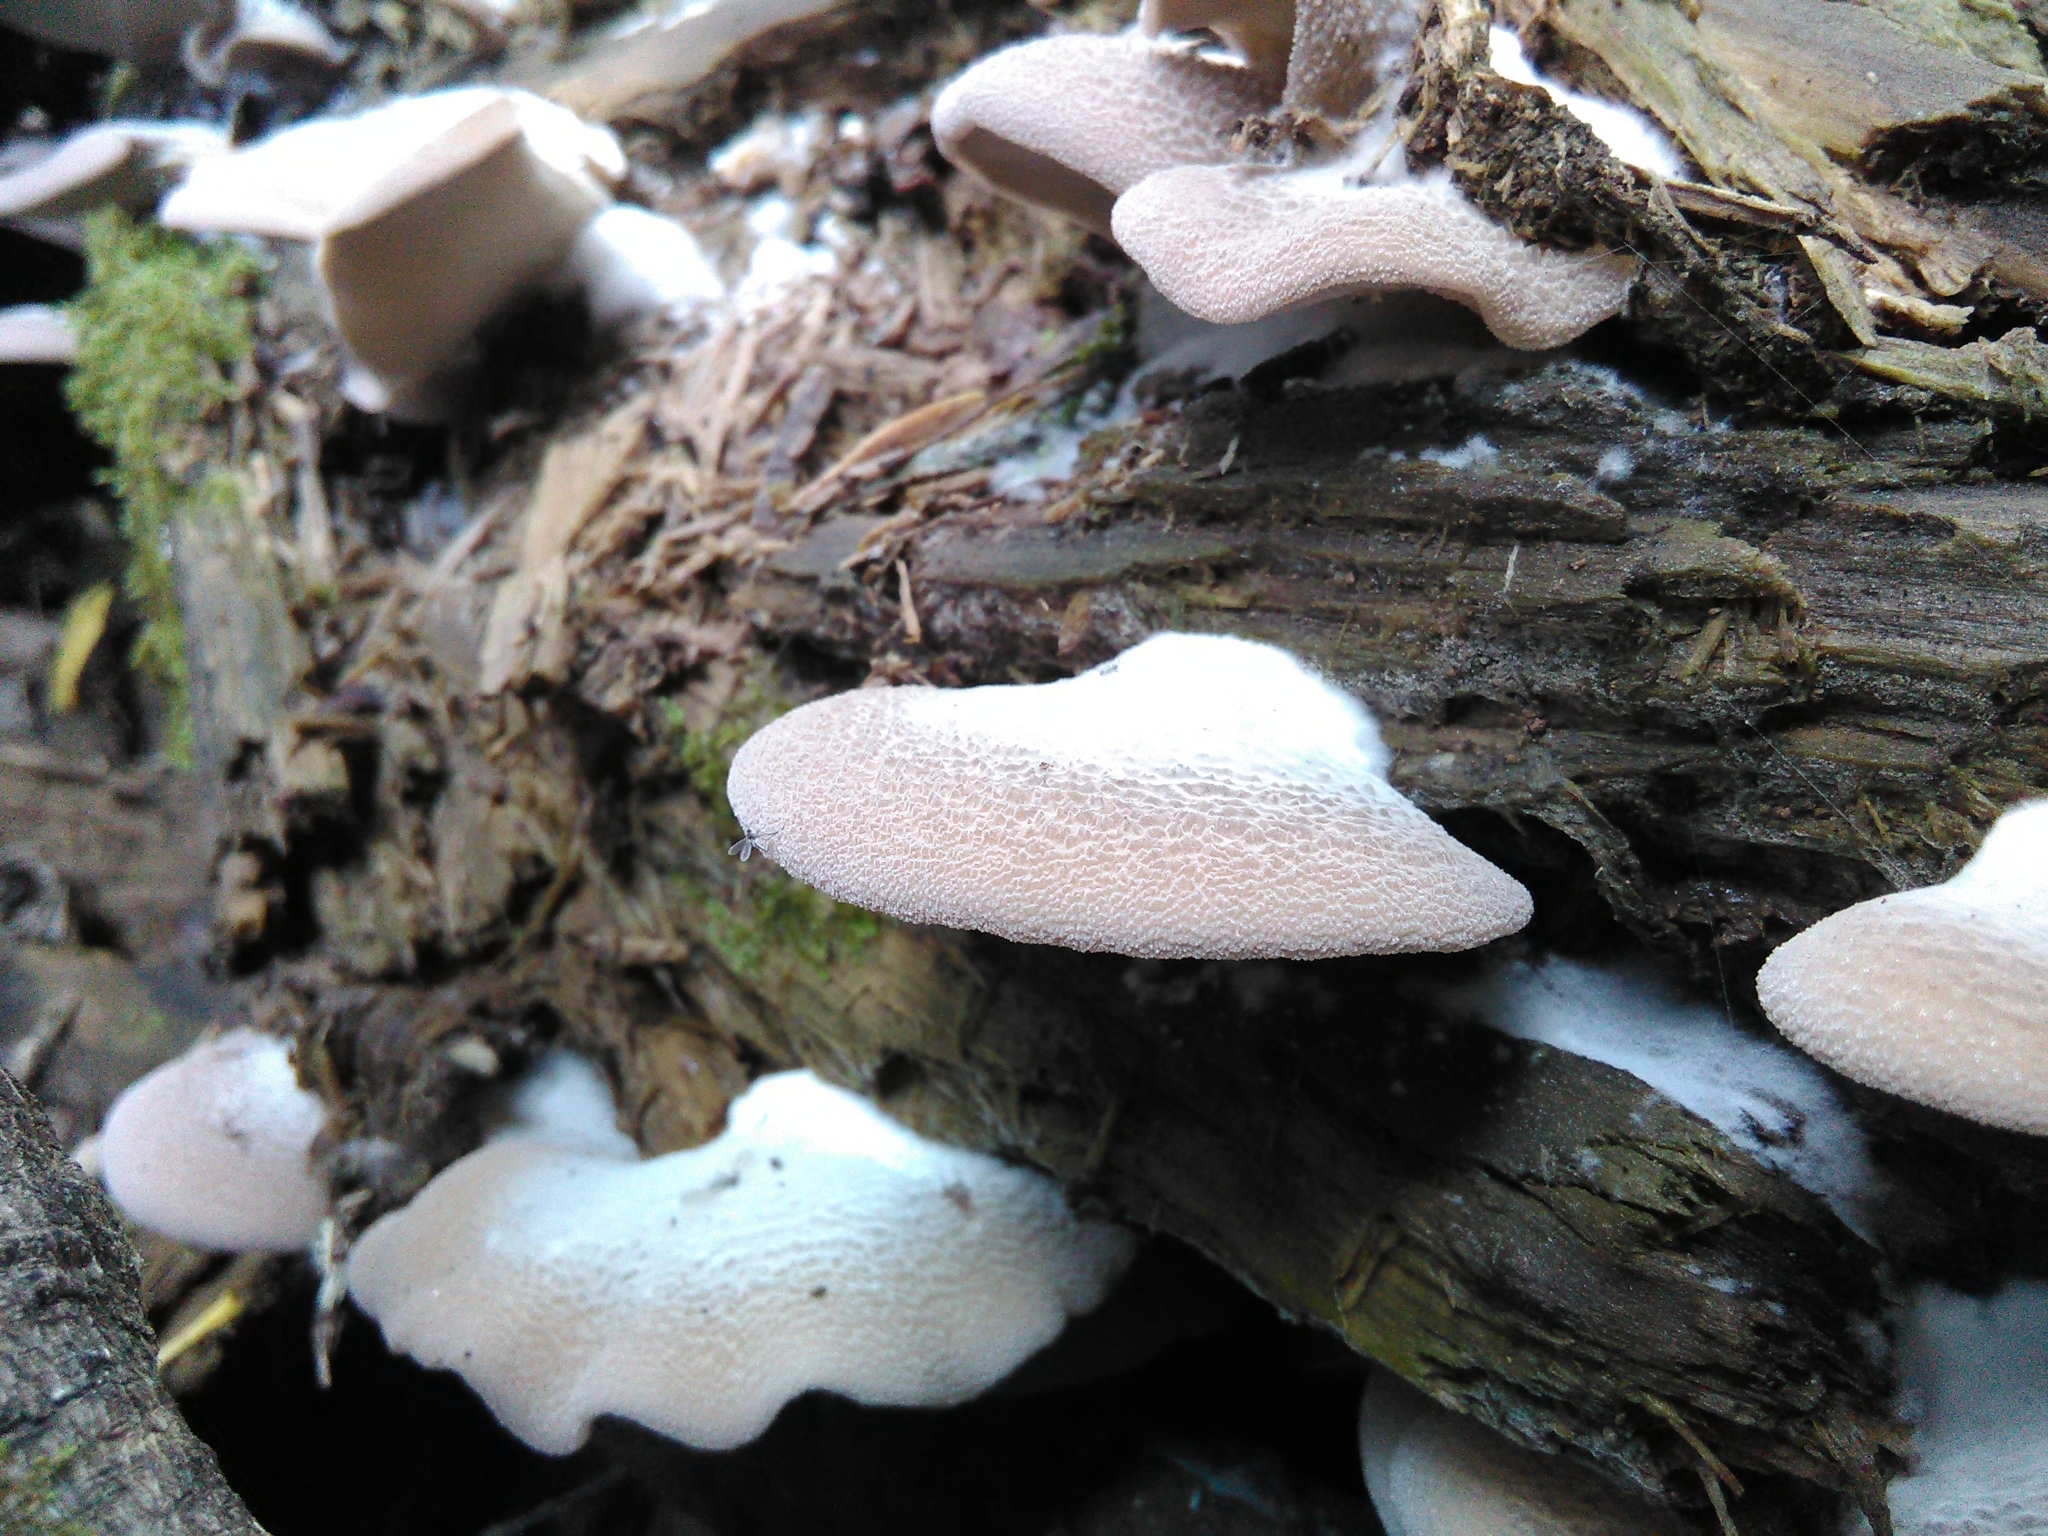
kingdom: Fungi
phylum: Basidiomycota
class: Agaricomycetes
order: Agaricales
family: Pleurotaceae
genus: Hohenbuehelia
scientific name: Hohenbuehelia mastrucata
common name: Woolly oyster
